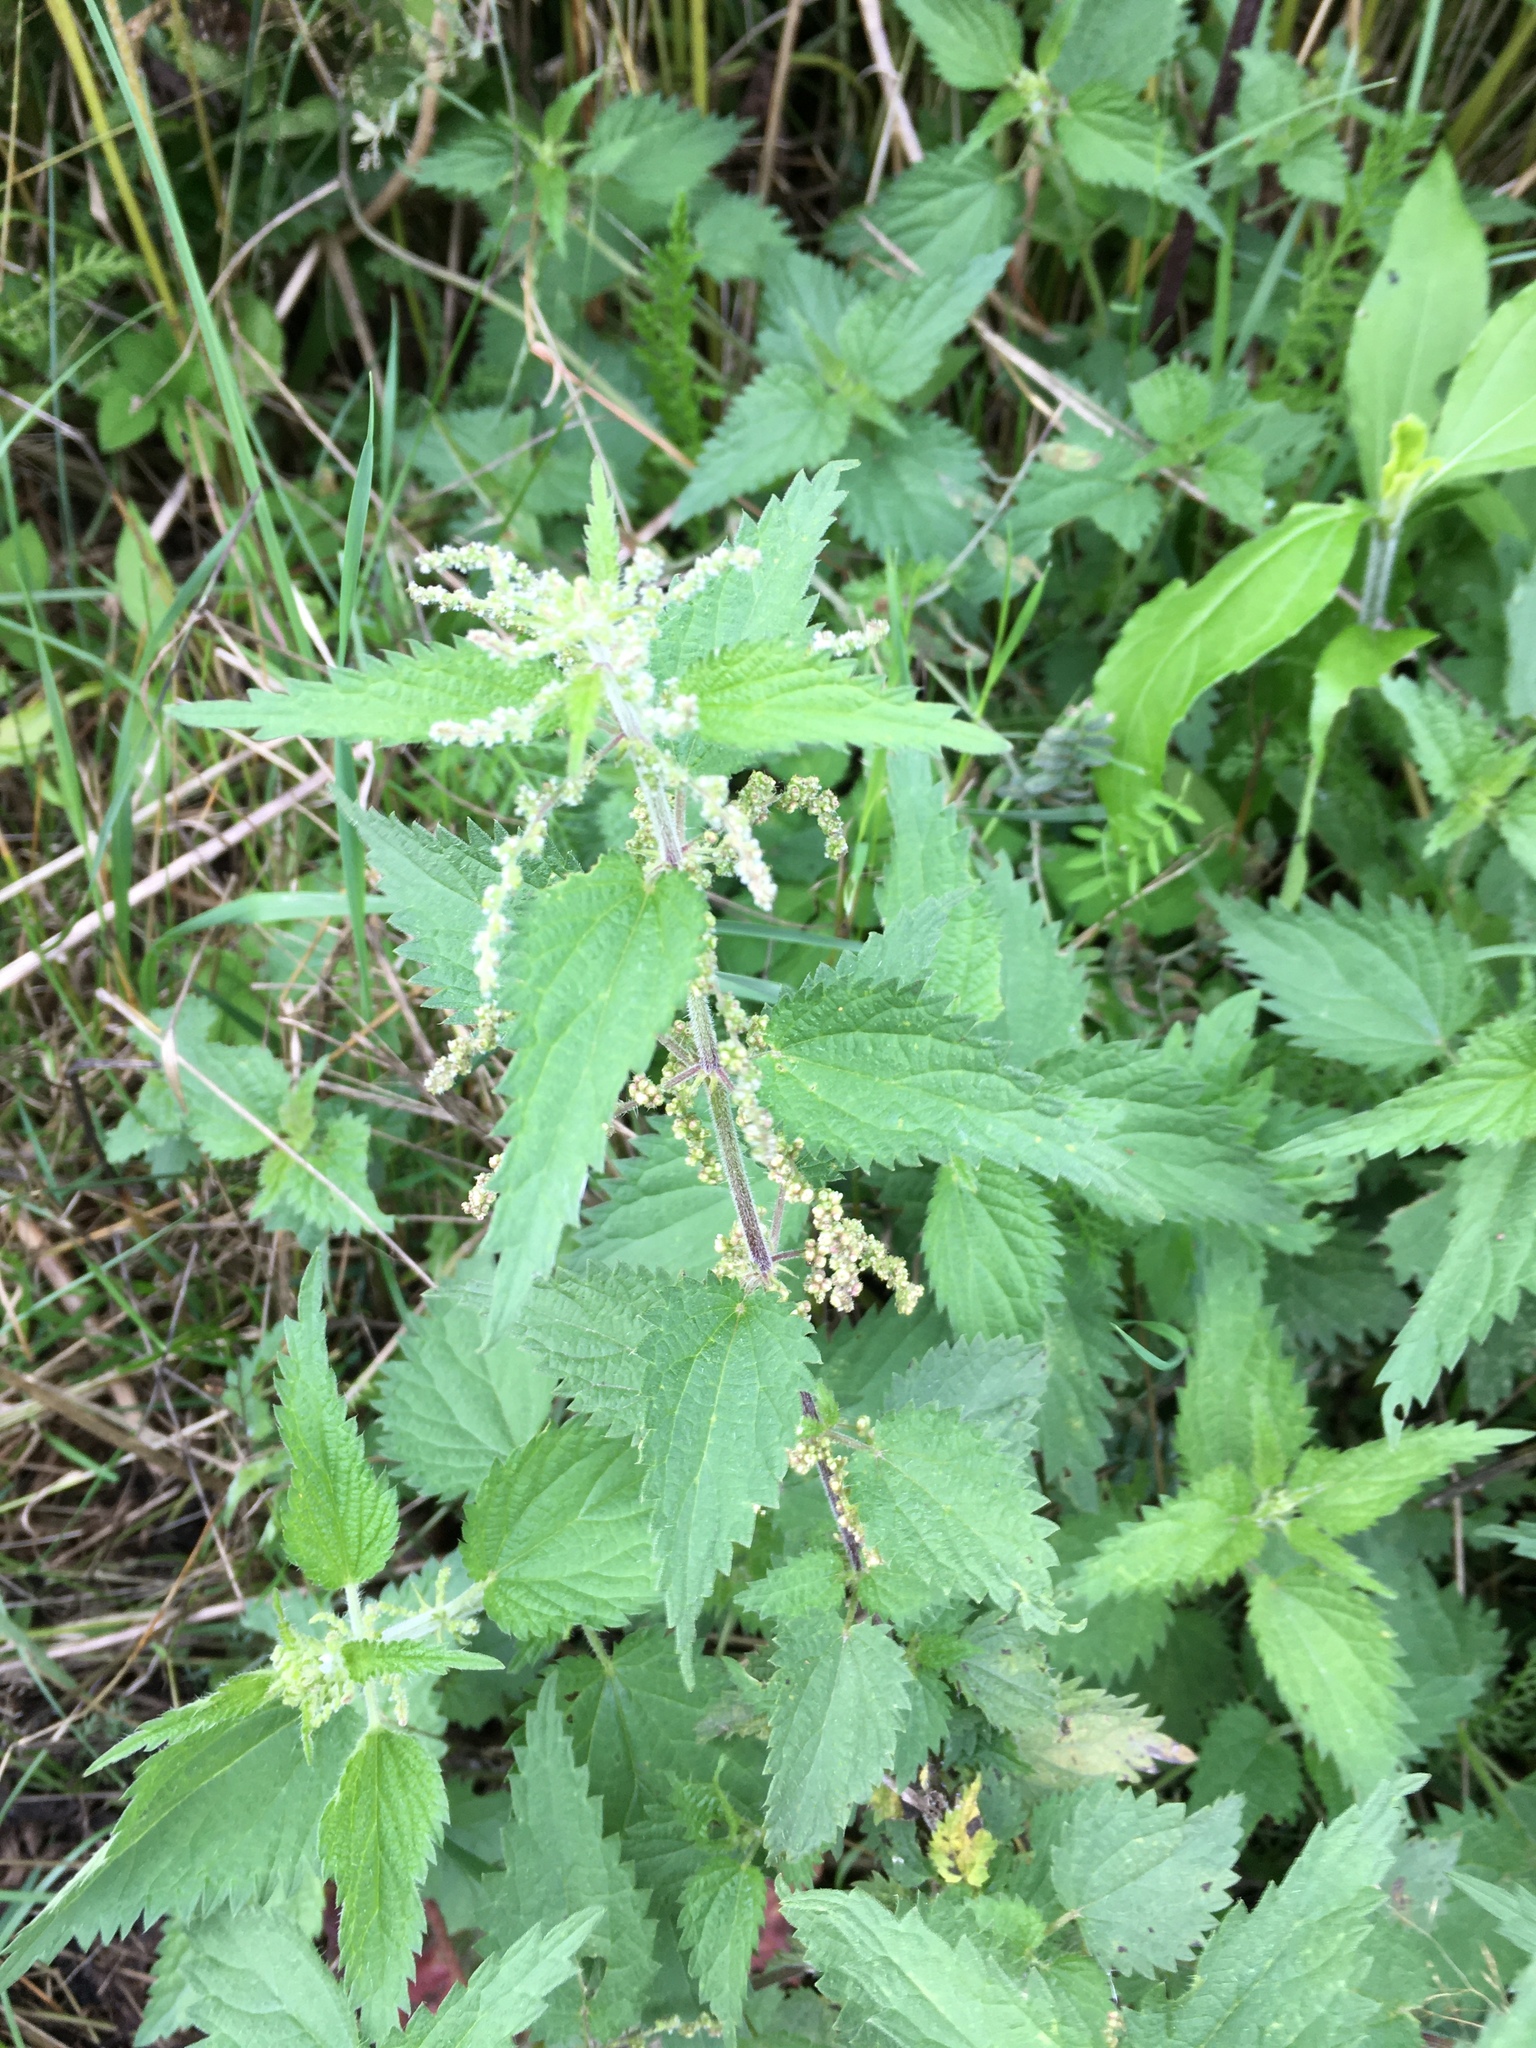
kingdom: Plantae
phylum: Tracheophyta
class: Magnoliopsida
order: Rosales
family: Urticaceae
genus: Urtica
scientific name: Urtica dioica
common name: Common nettle
